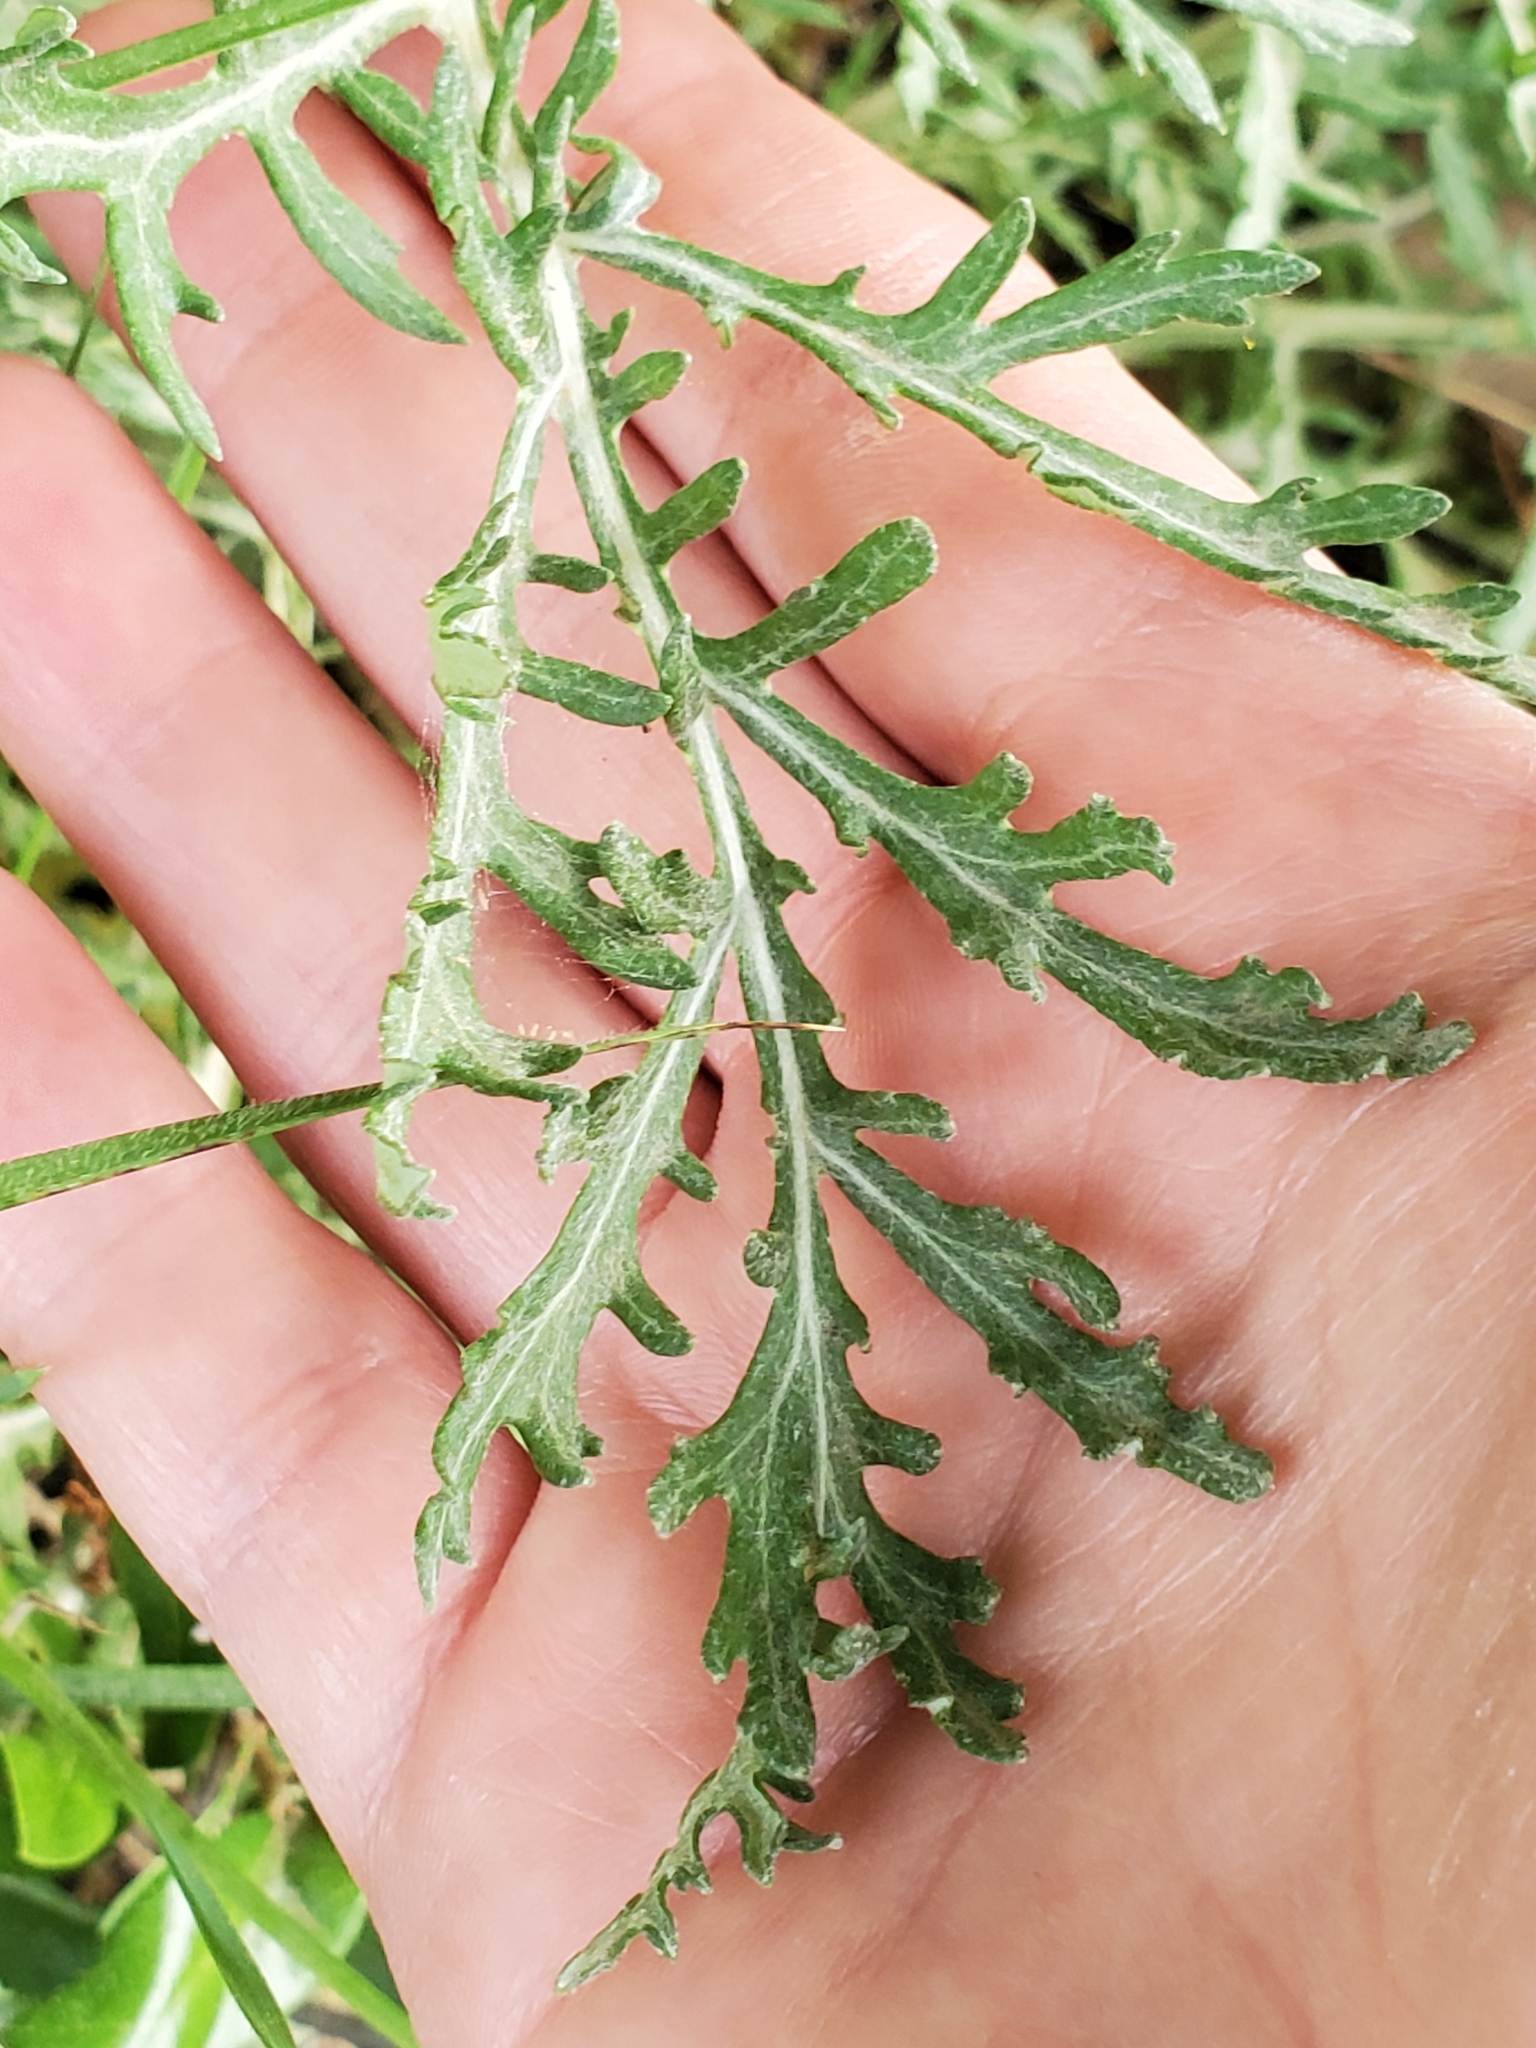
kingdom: Plantae
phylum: Tracheophyta
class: Magnoliopsida
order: Asterales
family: Asteraceae
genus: Hymenopappus
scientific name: Hymenopappus scabiosaeus
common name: Carolina woollywhite
